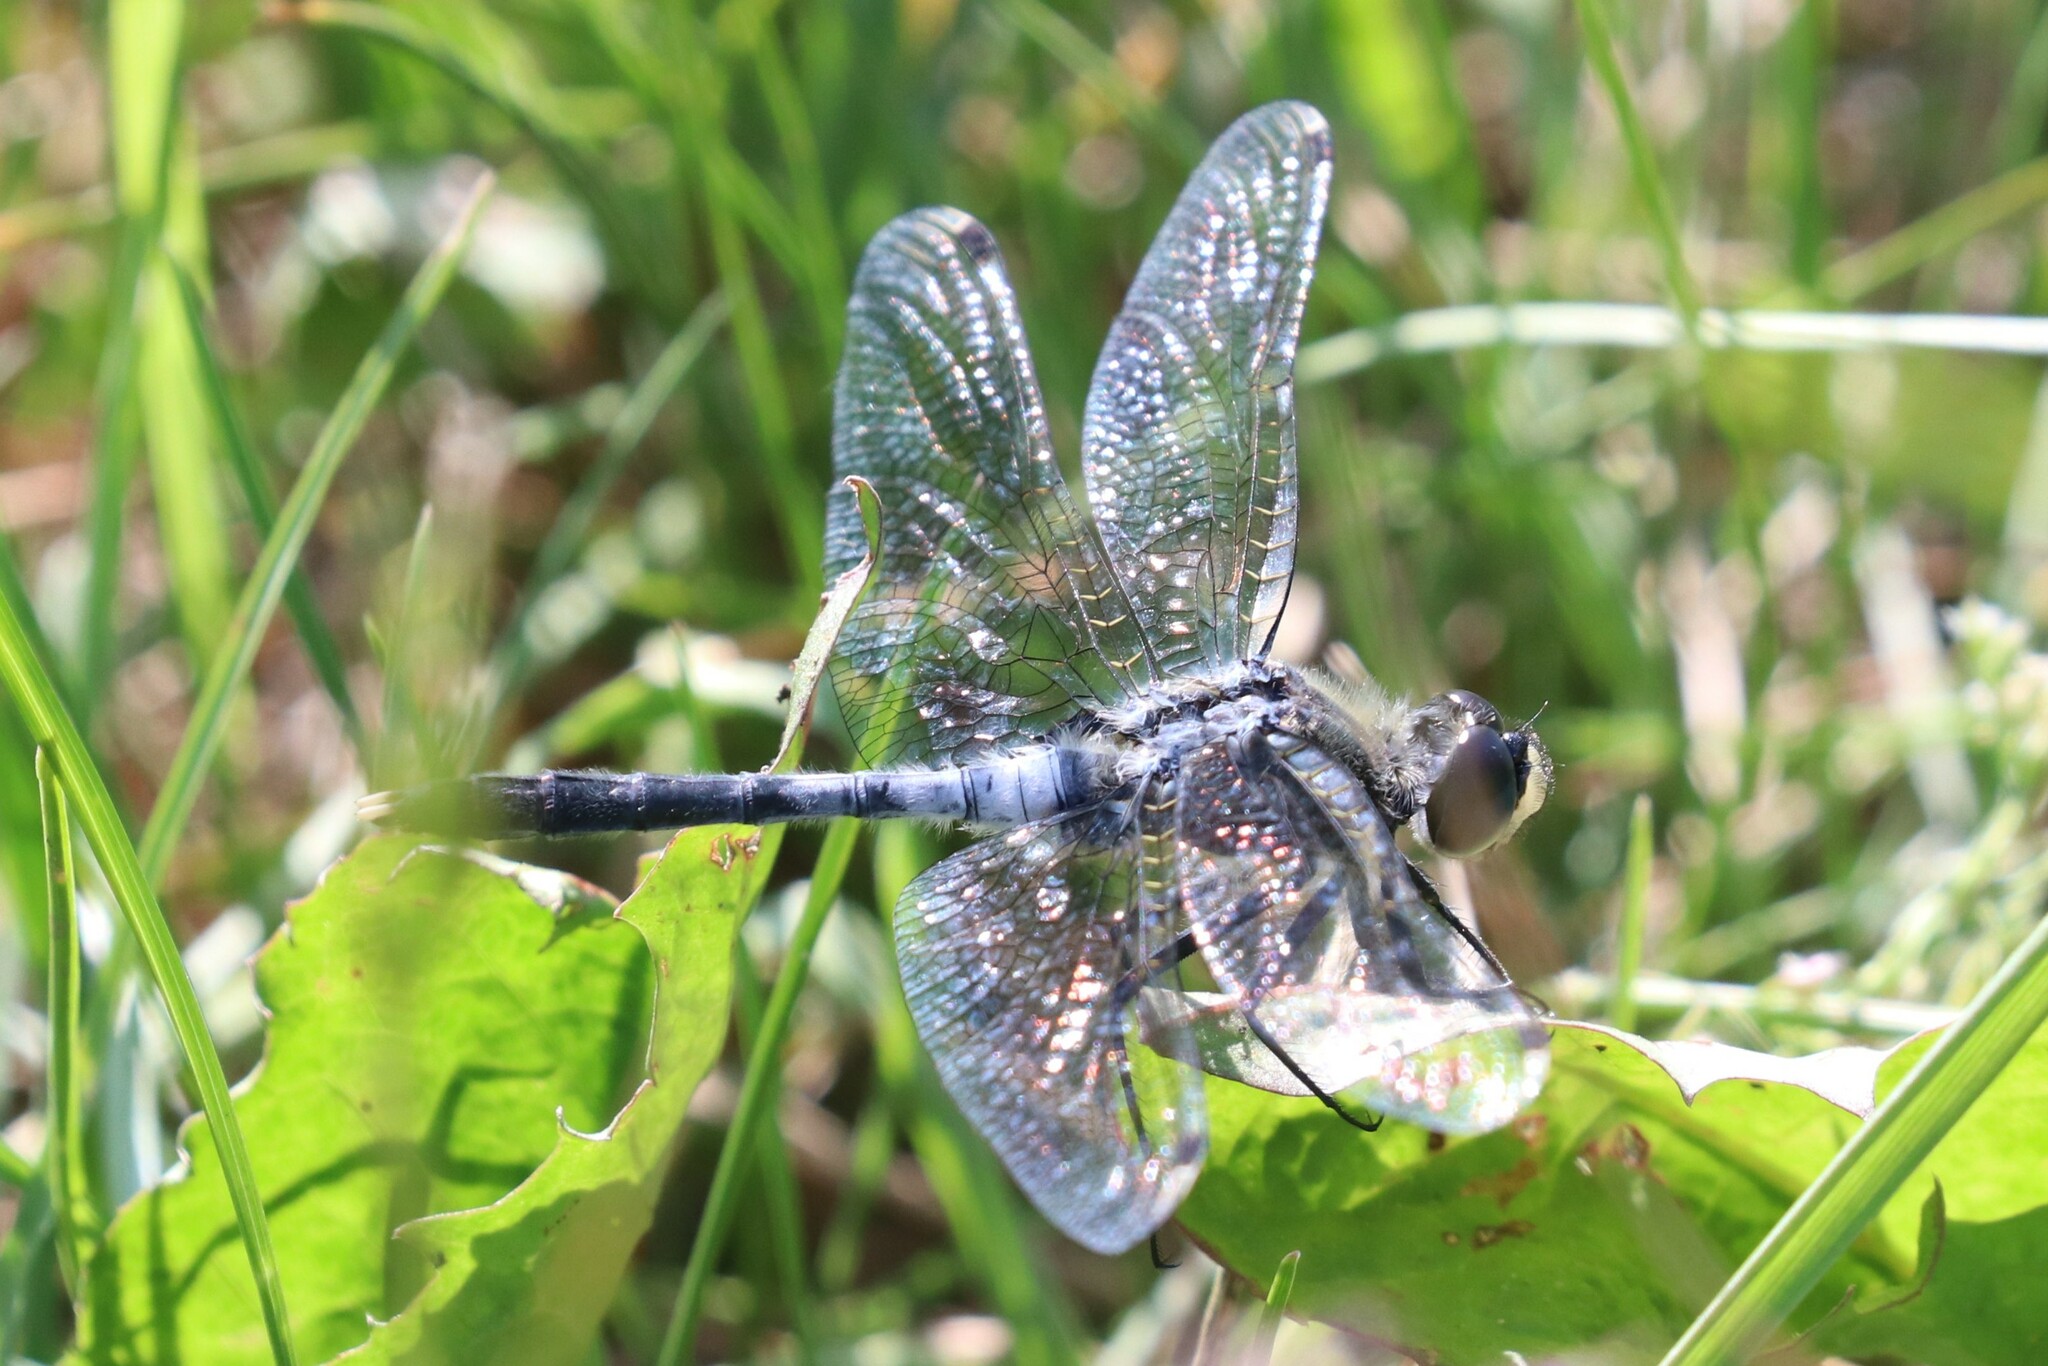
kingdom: Animalia
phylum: Arthropoda
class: Insecta
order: Odonata
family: Libellulidae
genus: Leucorrhinia
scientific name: Leucorrhinia albifrons
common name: Dark whiteface
